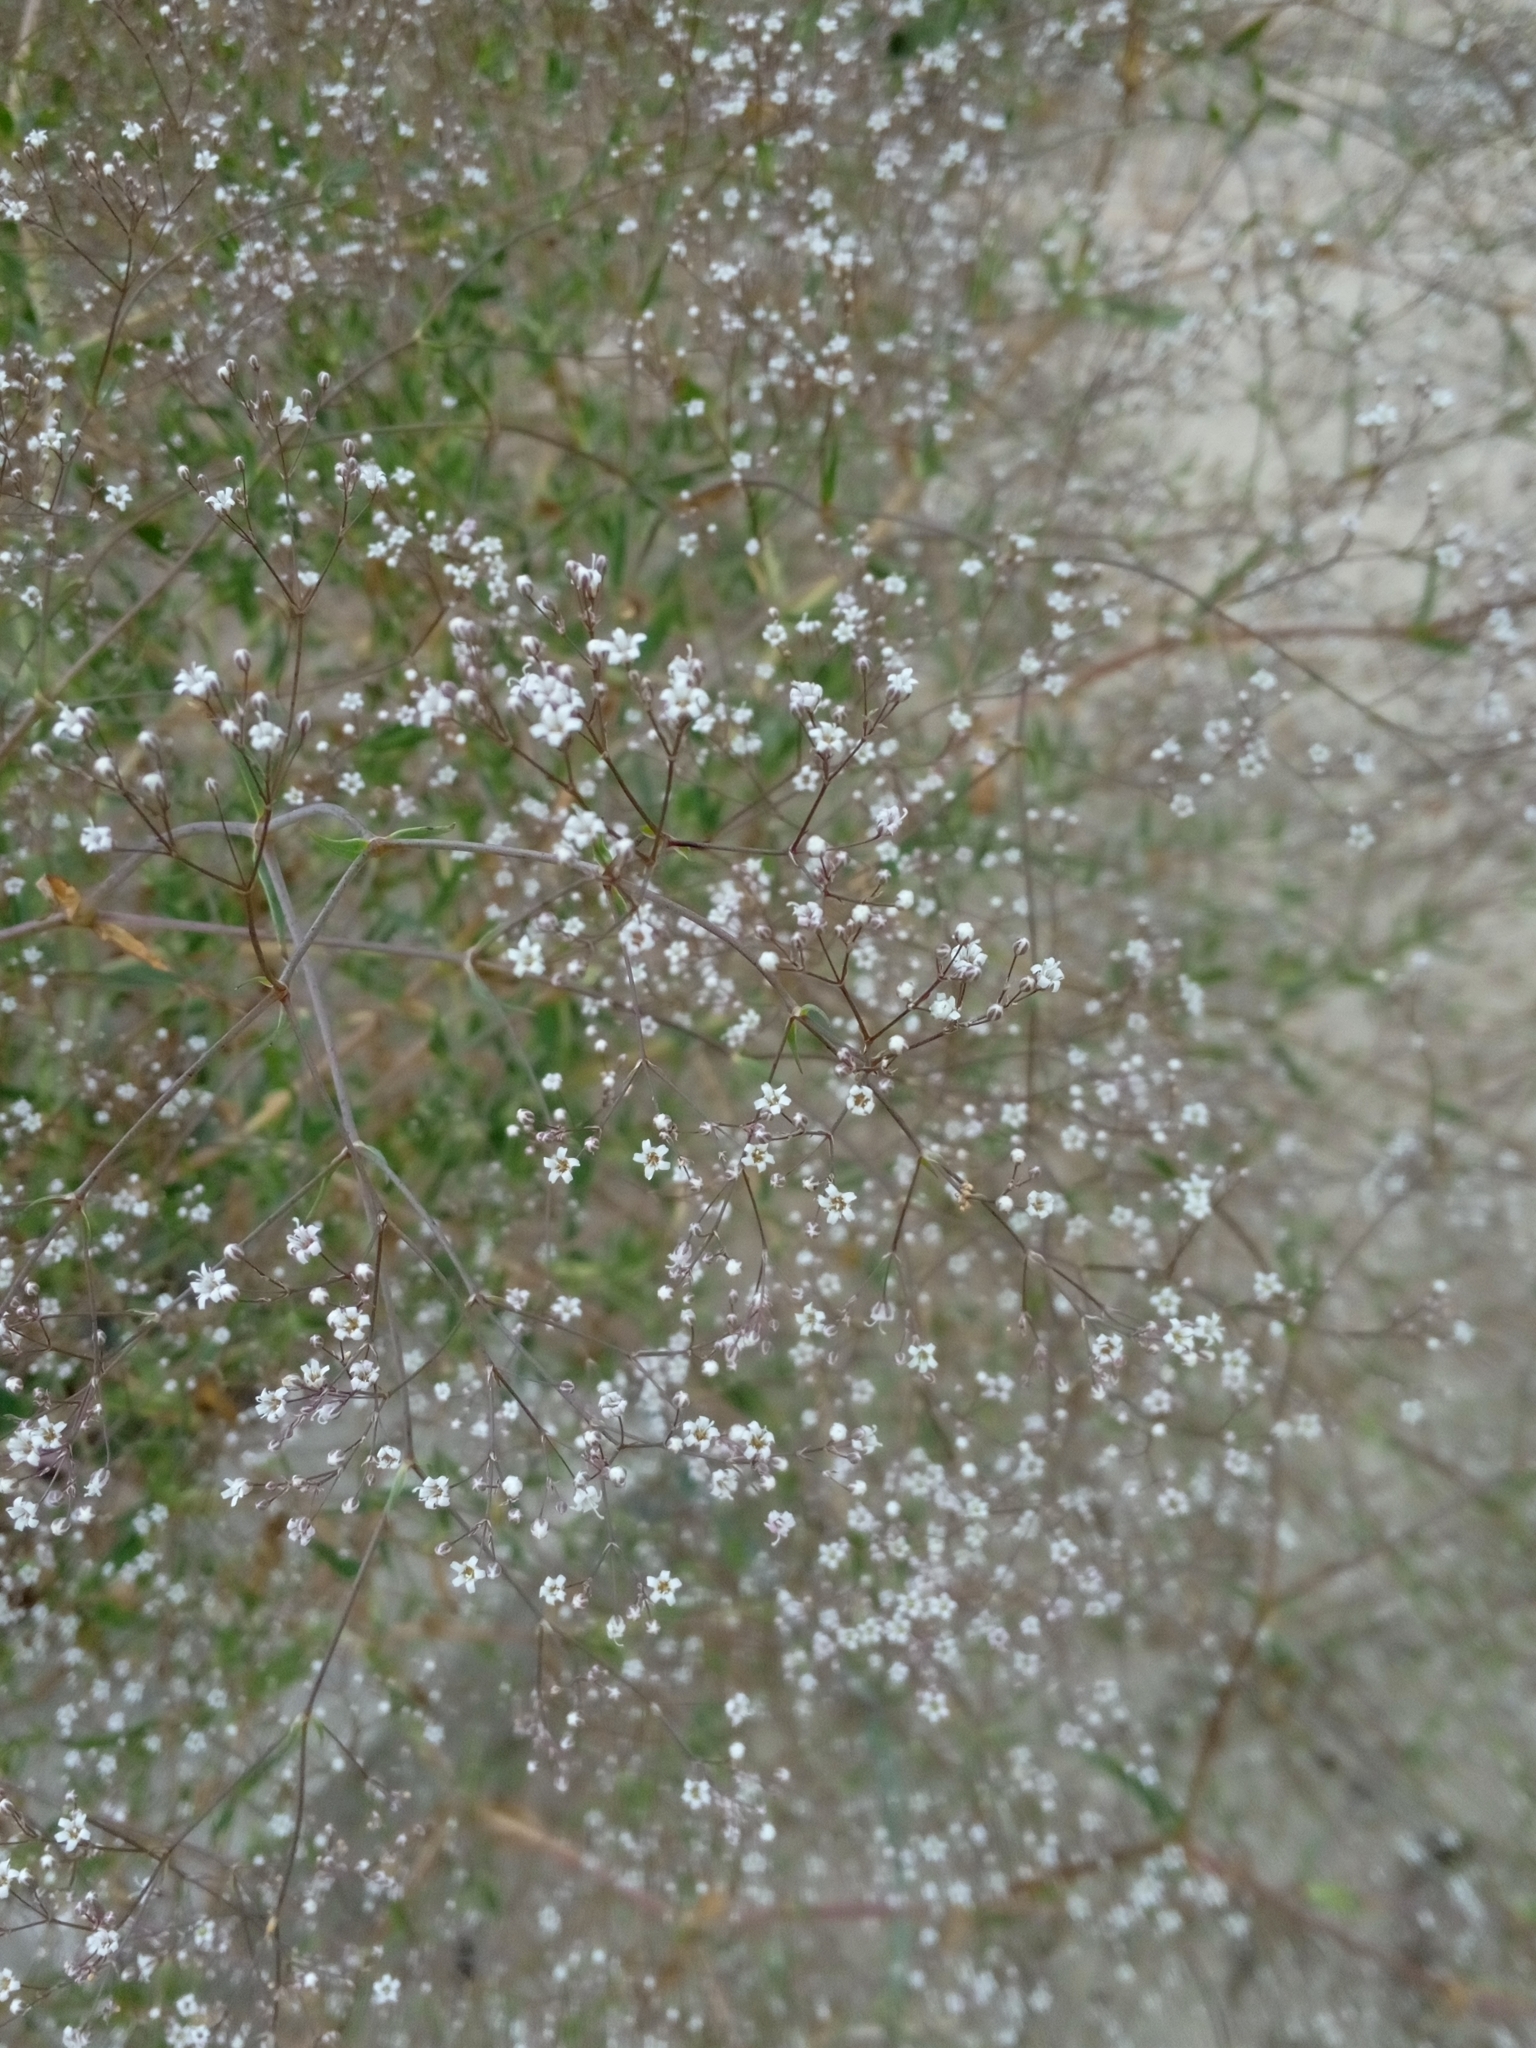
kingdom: Plantae
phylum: Tracheophyta
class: Magnoliopsida
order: Caryophyllales
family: Caryophyllaceae
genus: Gypsophila
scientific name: Gypsophila paniculata
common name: Baby's-breath
